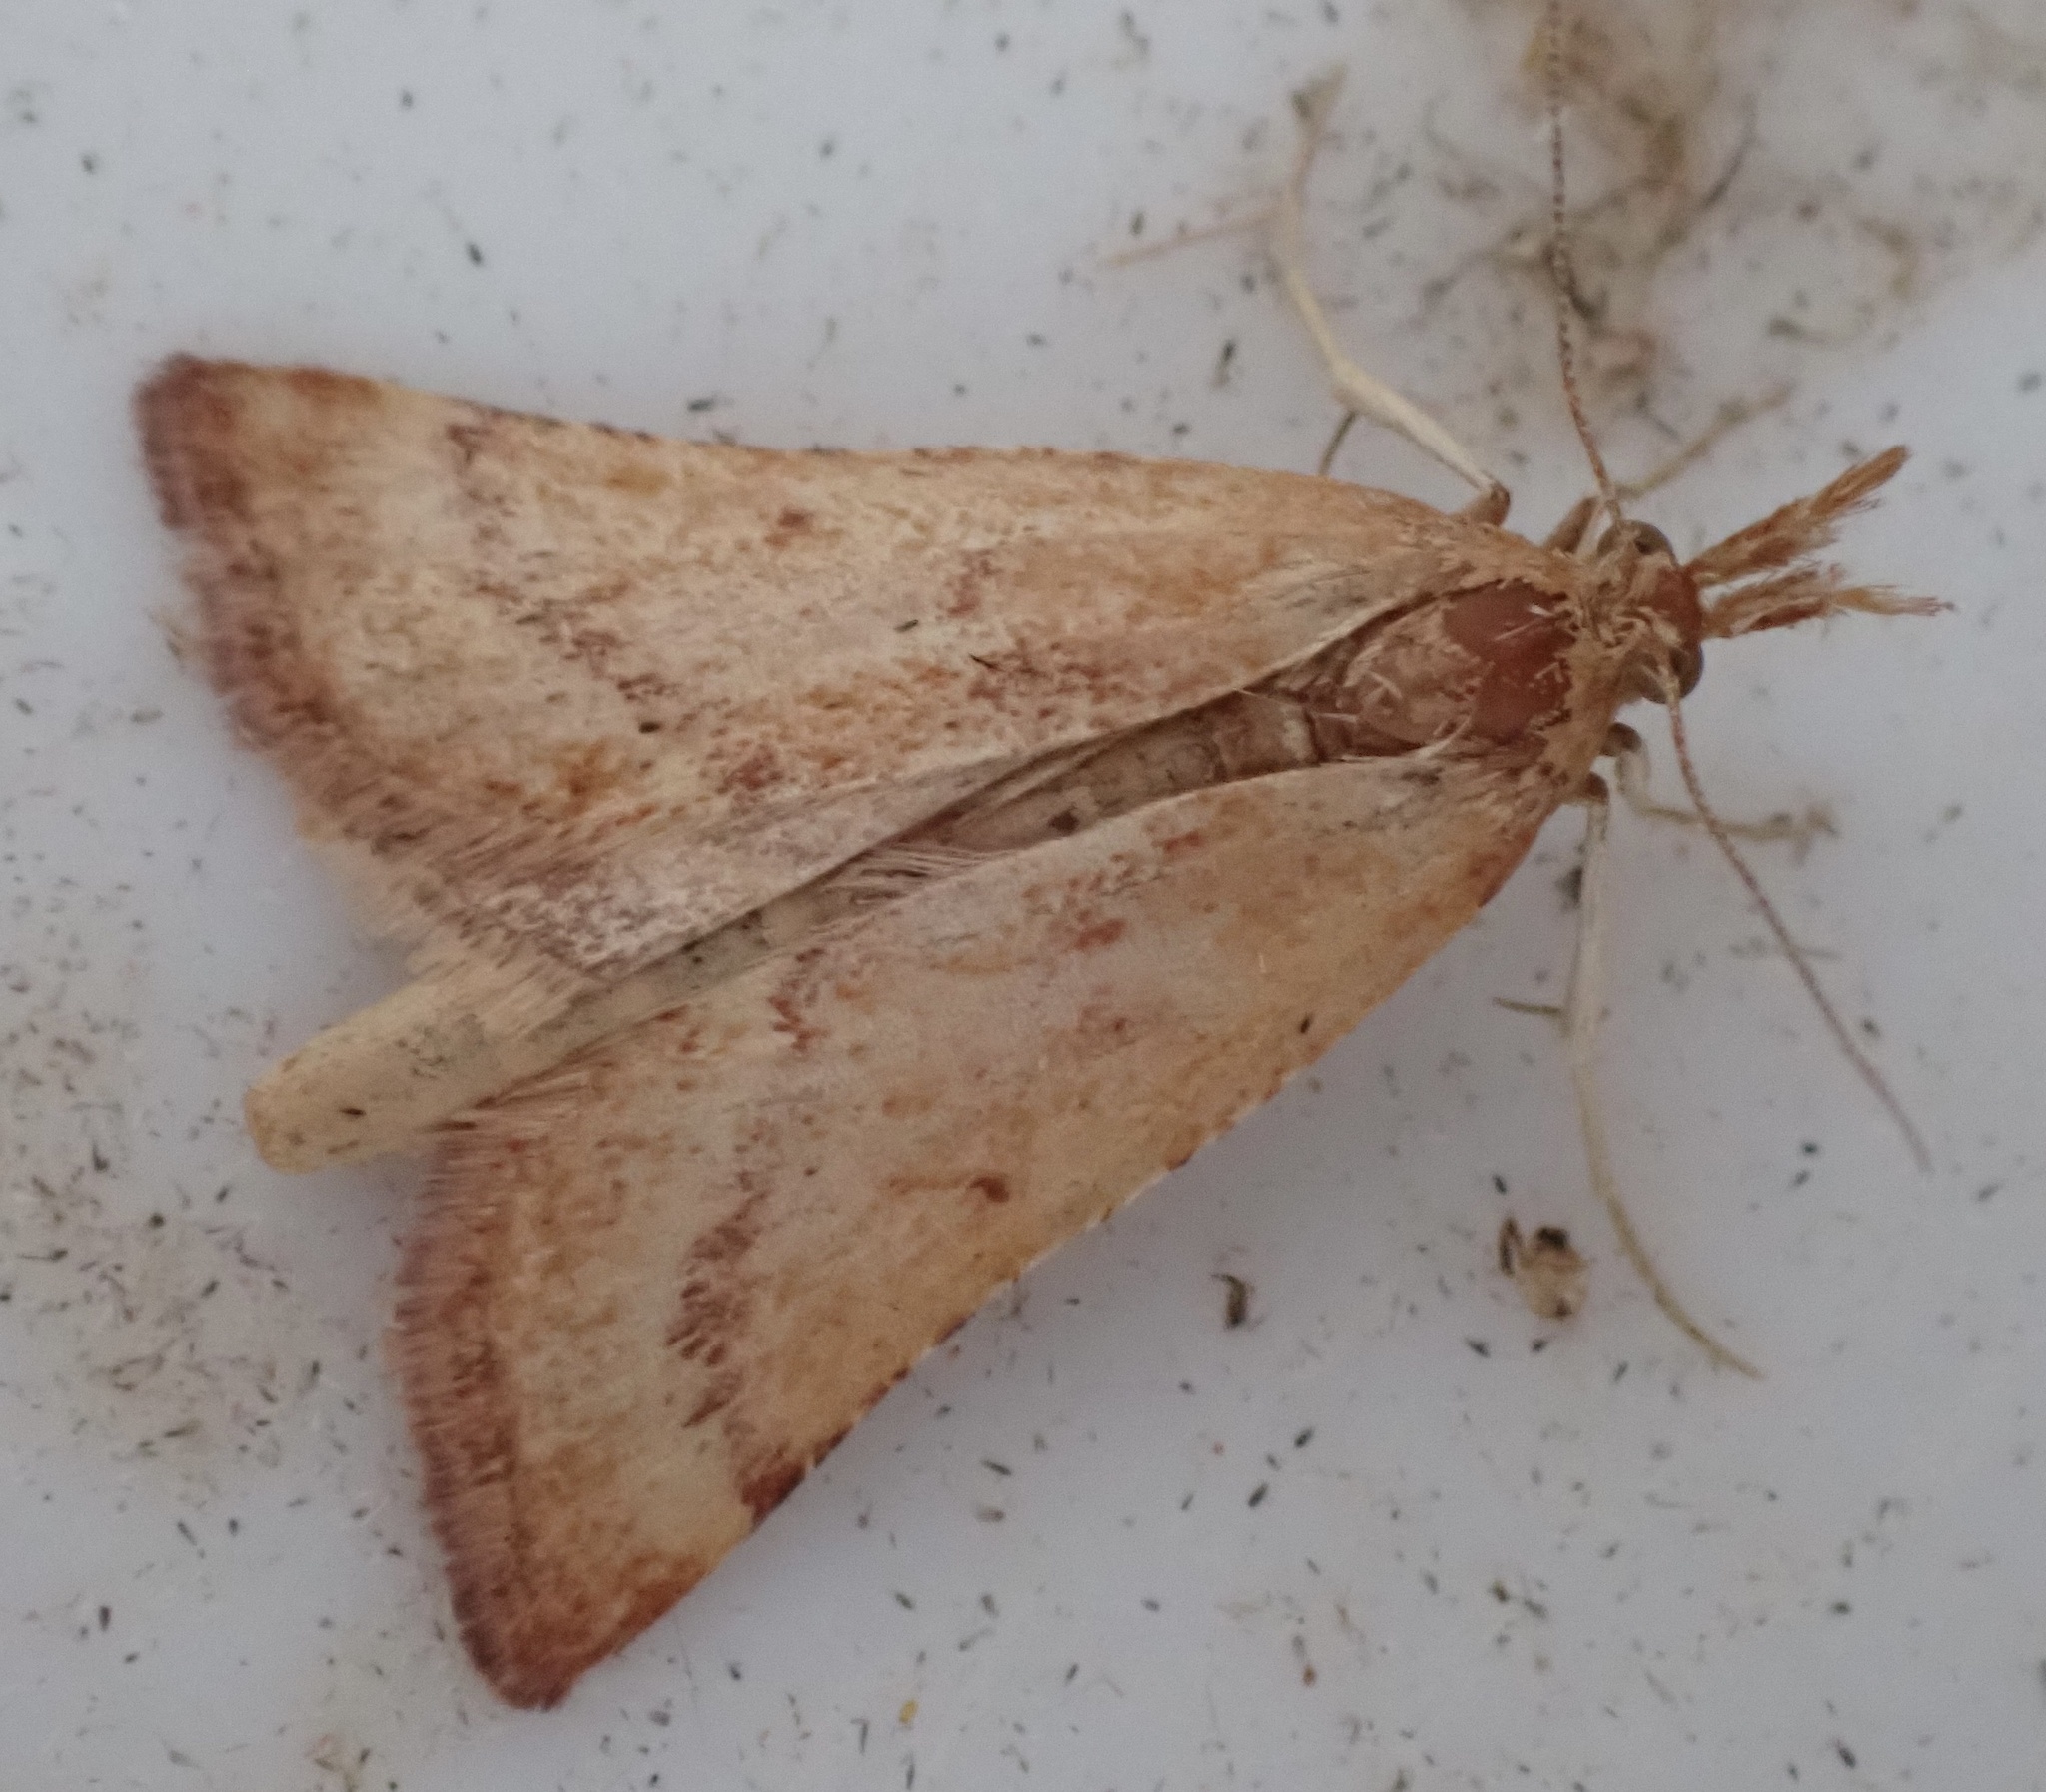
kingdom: Animalia
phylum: Arthropoda
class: Insecta
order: Lepidoptera
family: Pyralidae
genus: Synaphe
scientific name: Synaphe punctalis
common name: Long-legged tabby
